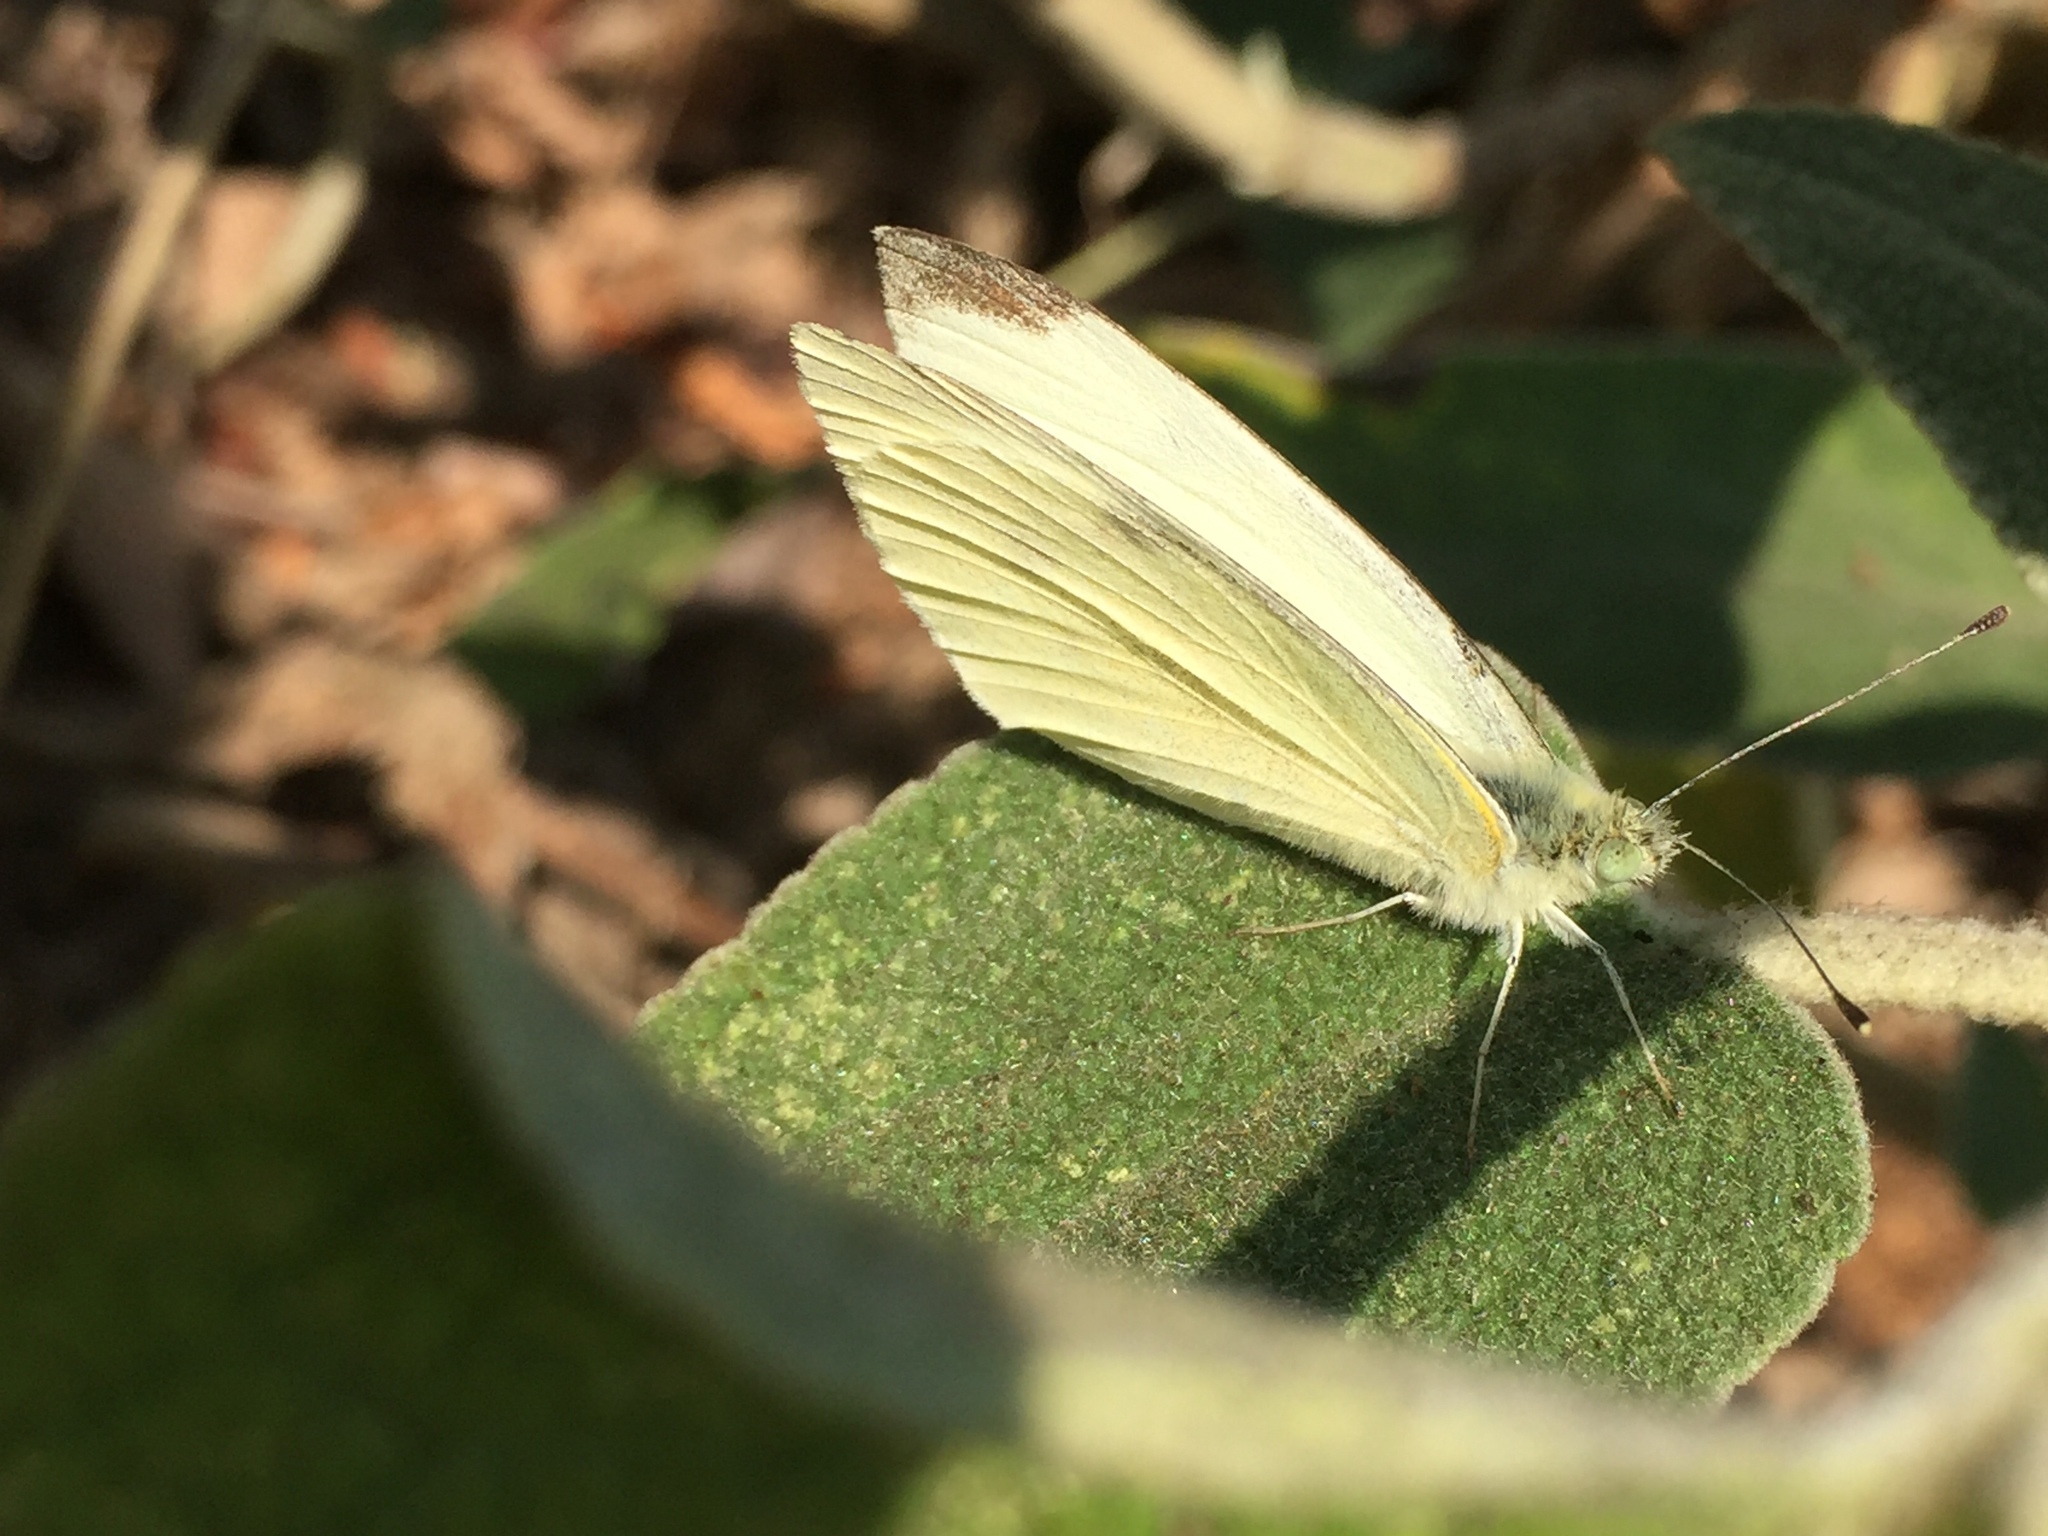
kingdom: Animalia
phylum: Arthropoda
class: Insecta
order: Lepidoptera
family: Pieridae
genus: Pieris
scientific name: Pieris rapae
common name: Small white
